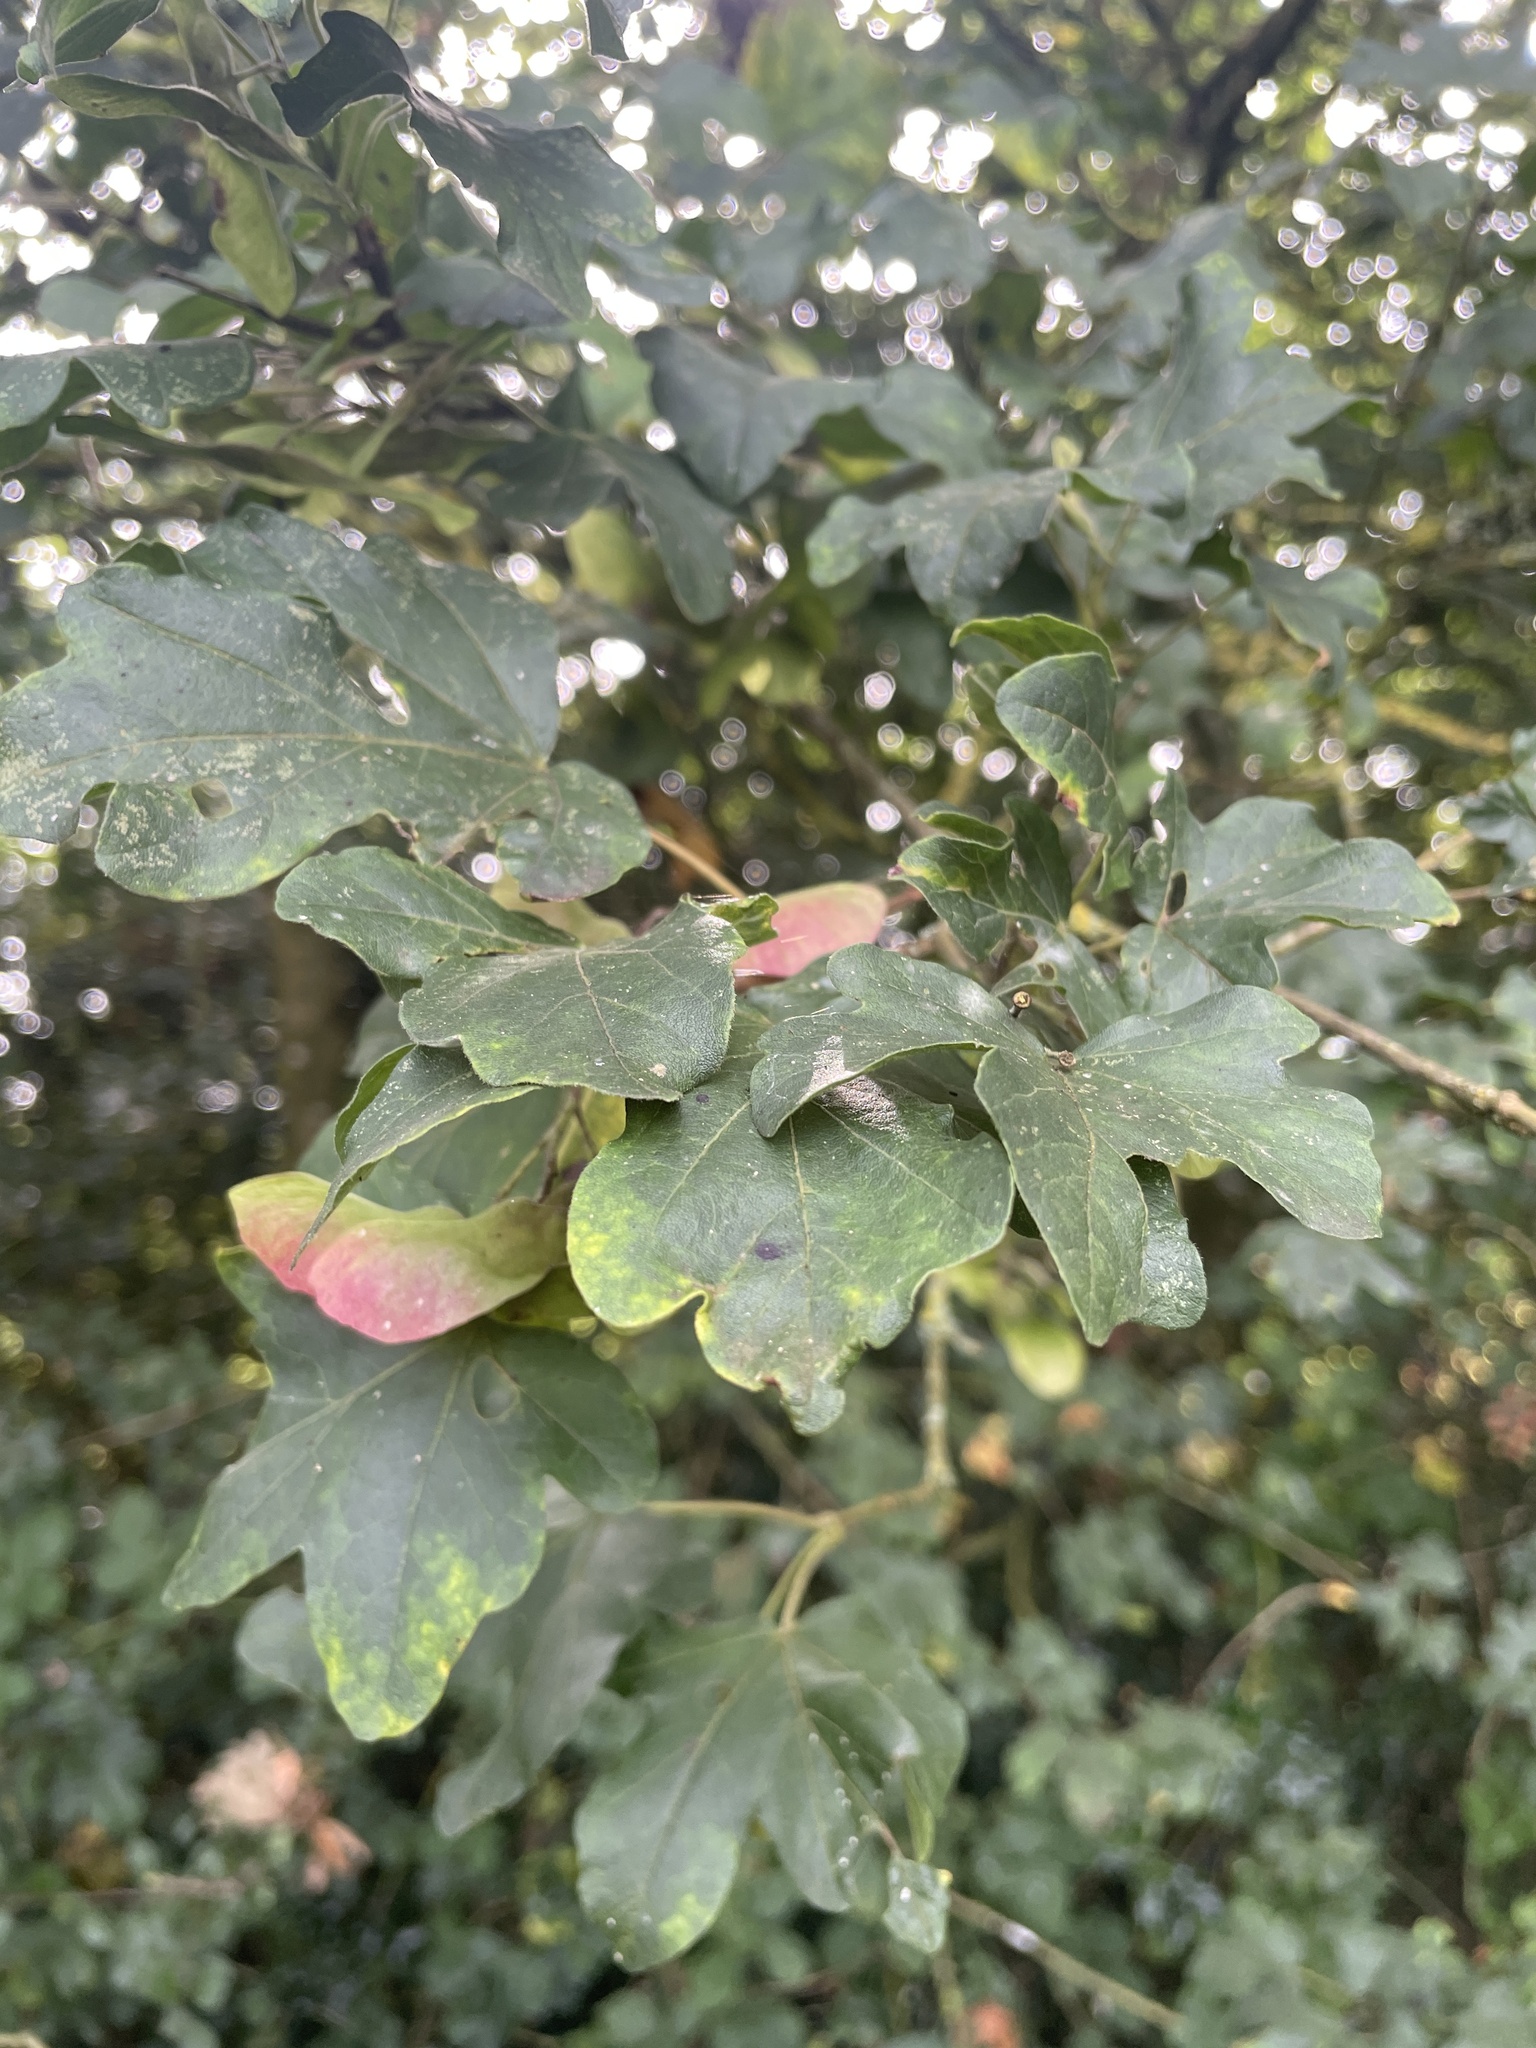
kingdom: Plantae
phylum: Tracheophyta
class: Magnoliopsida
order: Sapindales
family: Sapindaceae
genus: Acer
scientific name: Acer campestre
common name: Field maple
